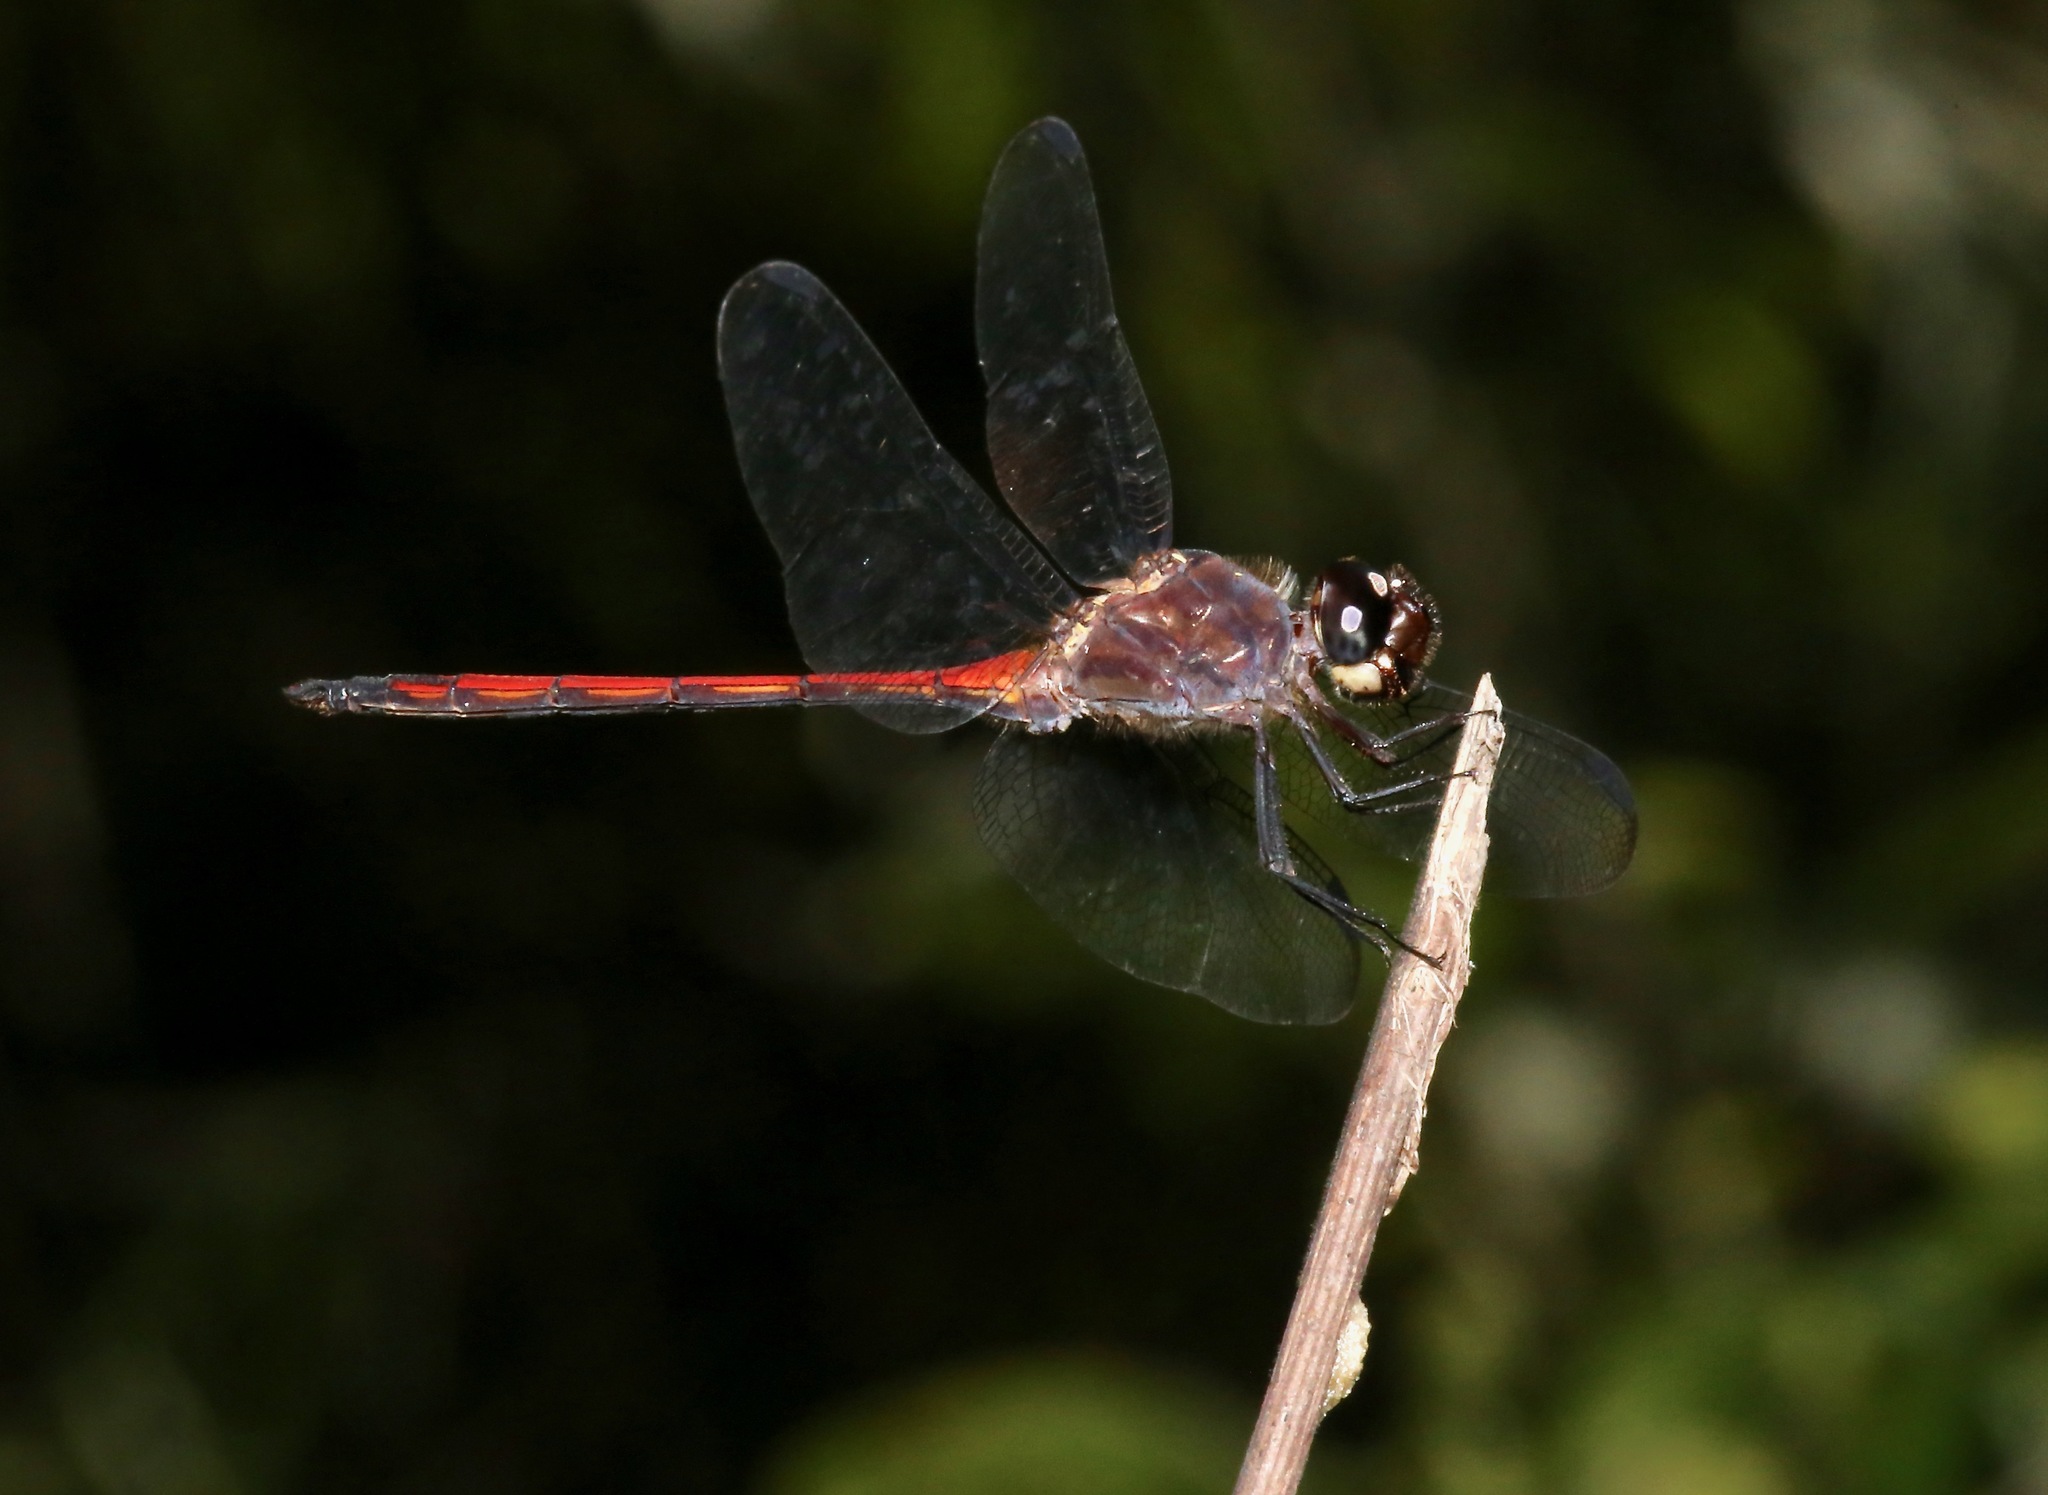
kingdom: Animalia
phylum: Arthropoda
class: Insecta
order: Odonata
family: Libellulidae
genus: Orthemis
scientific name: Orthemis levis
